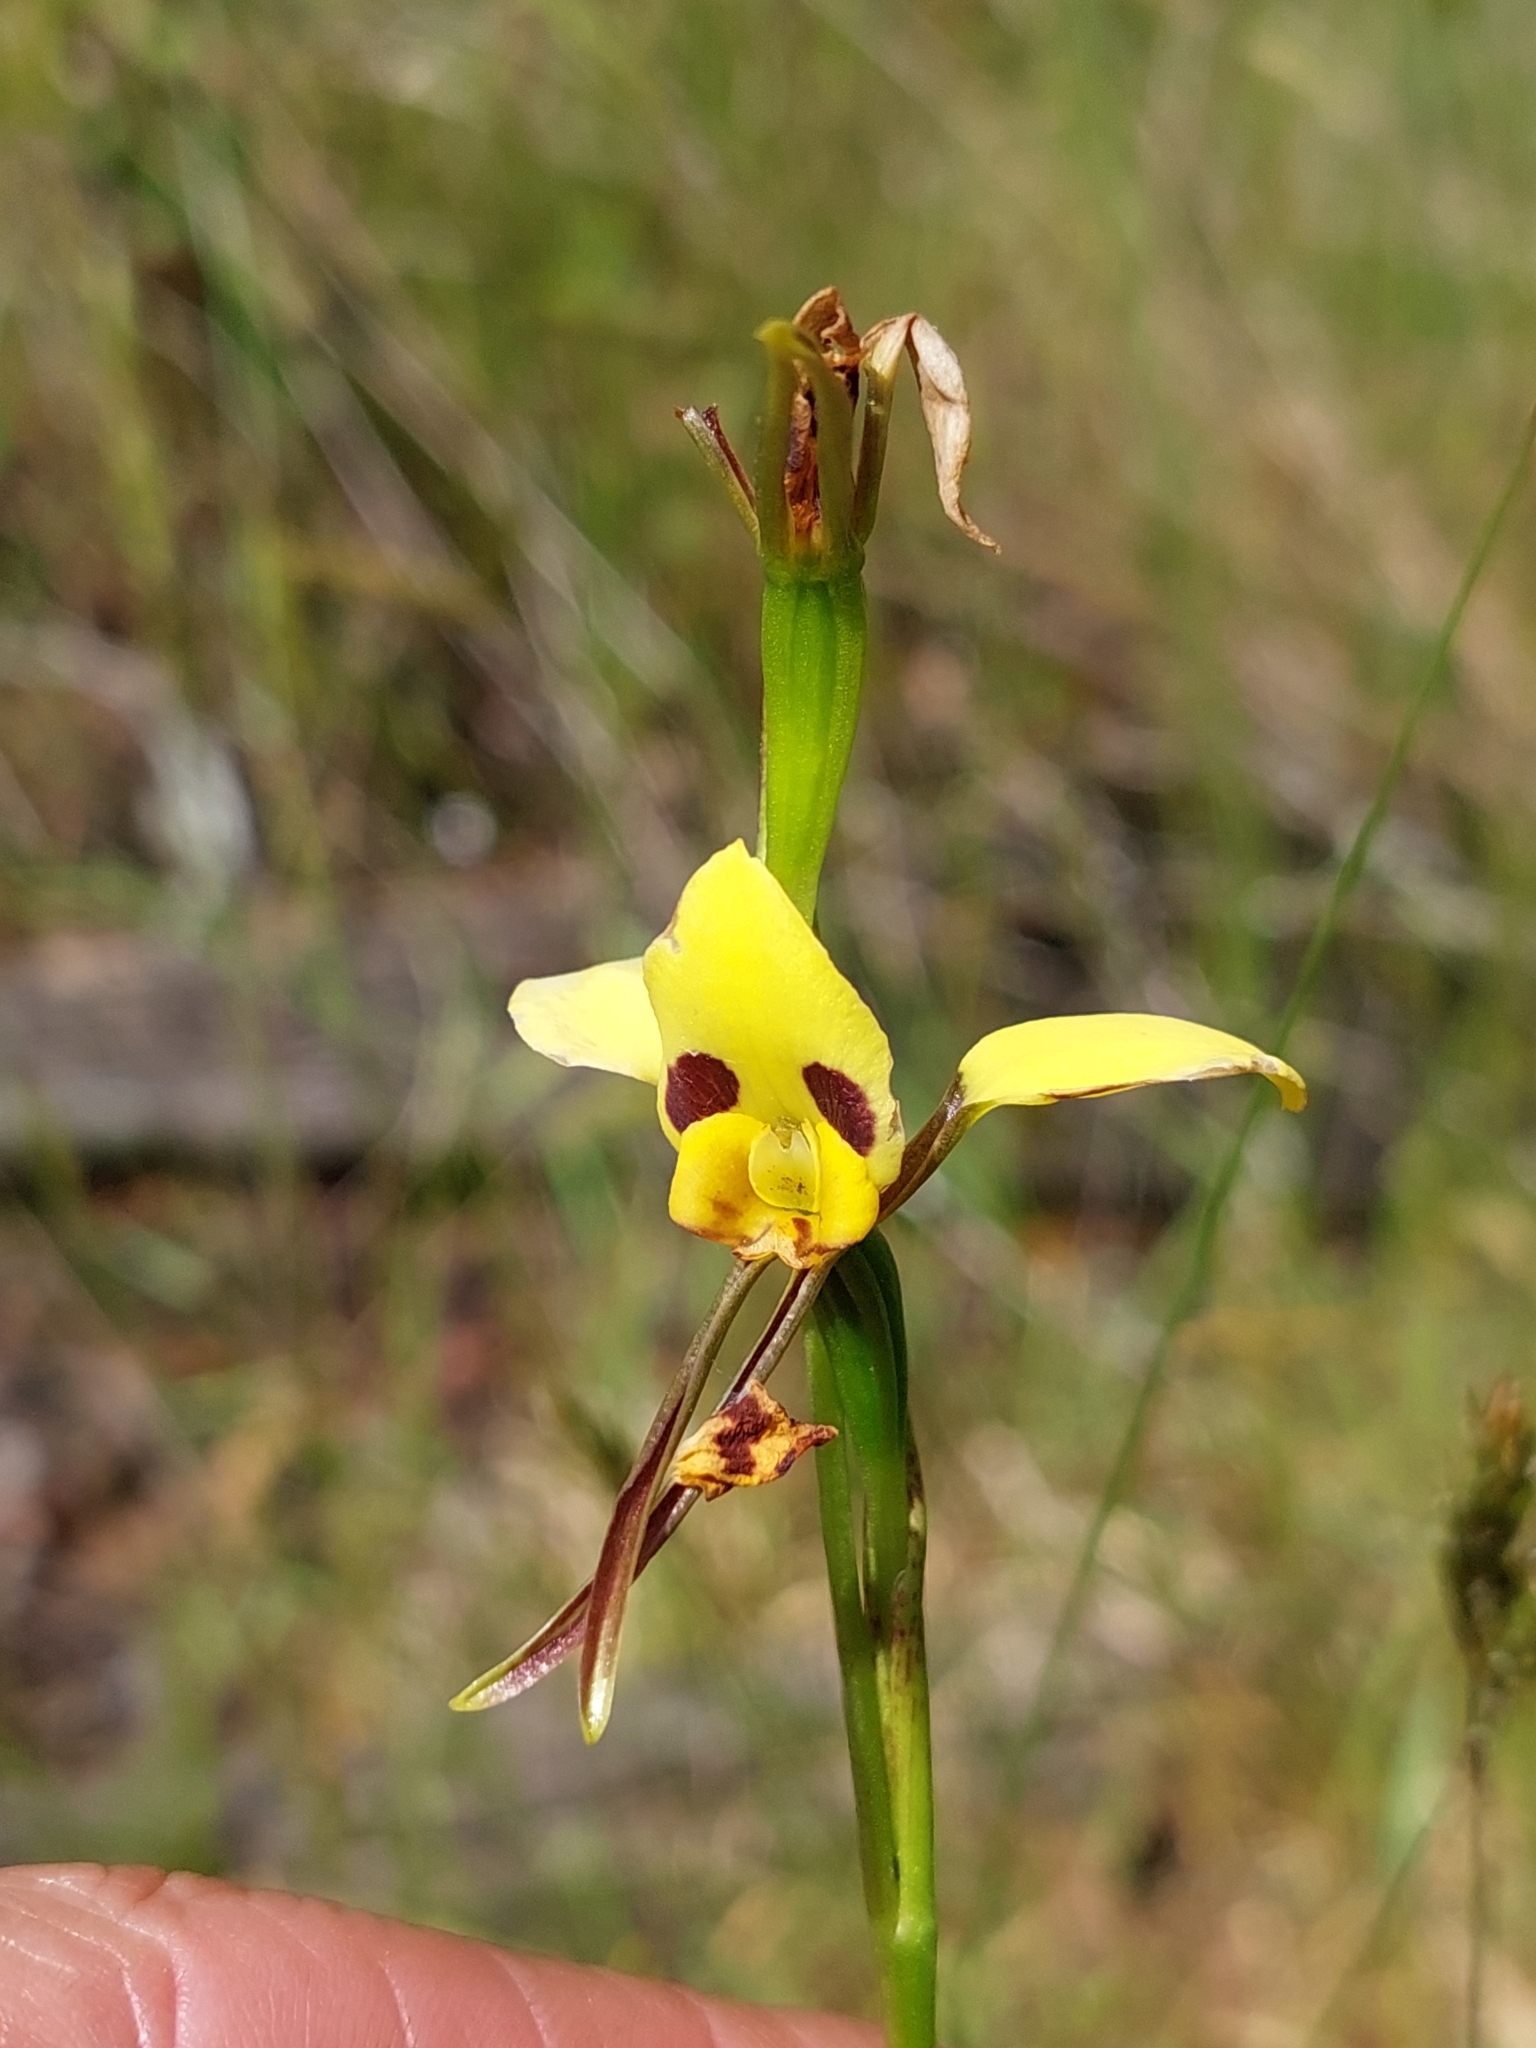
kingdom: Plantae
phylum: Tracheophyta
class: Liliopsida
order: Asparagales
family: Orchidaceae
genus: Diuris
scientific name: Diuris sulphurea
